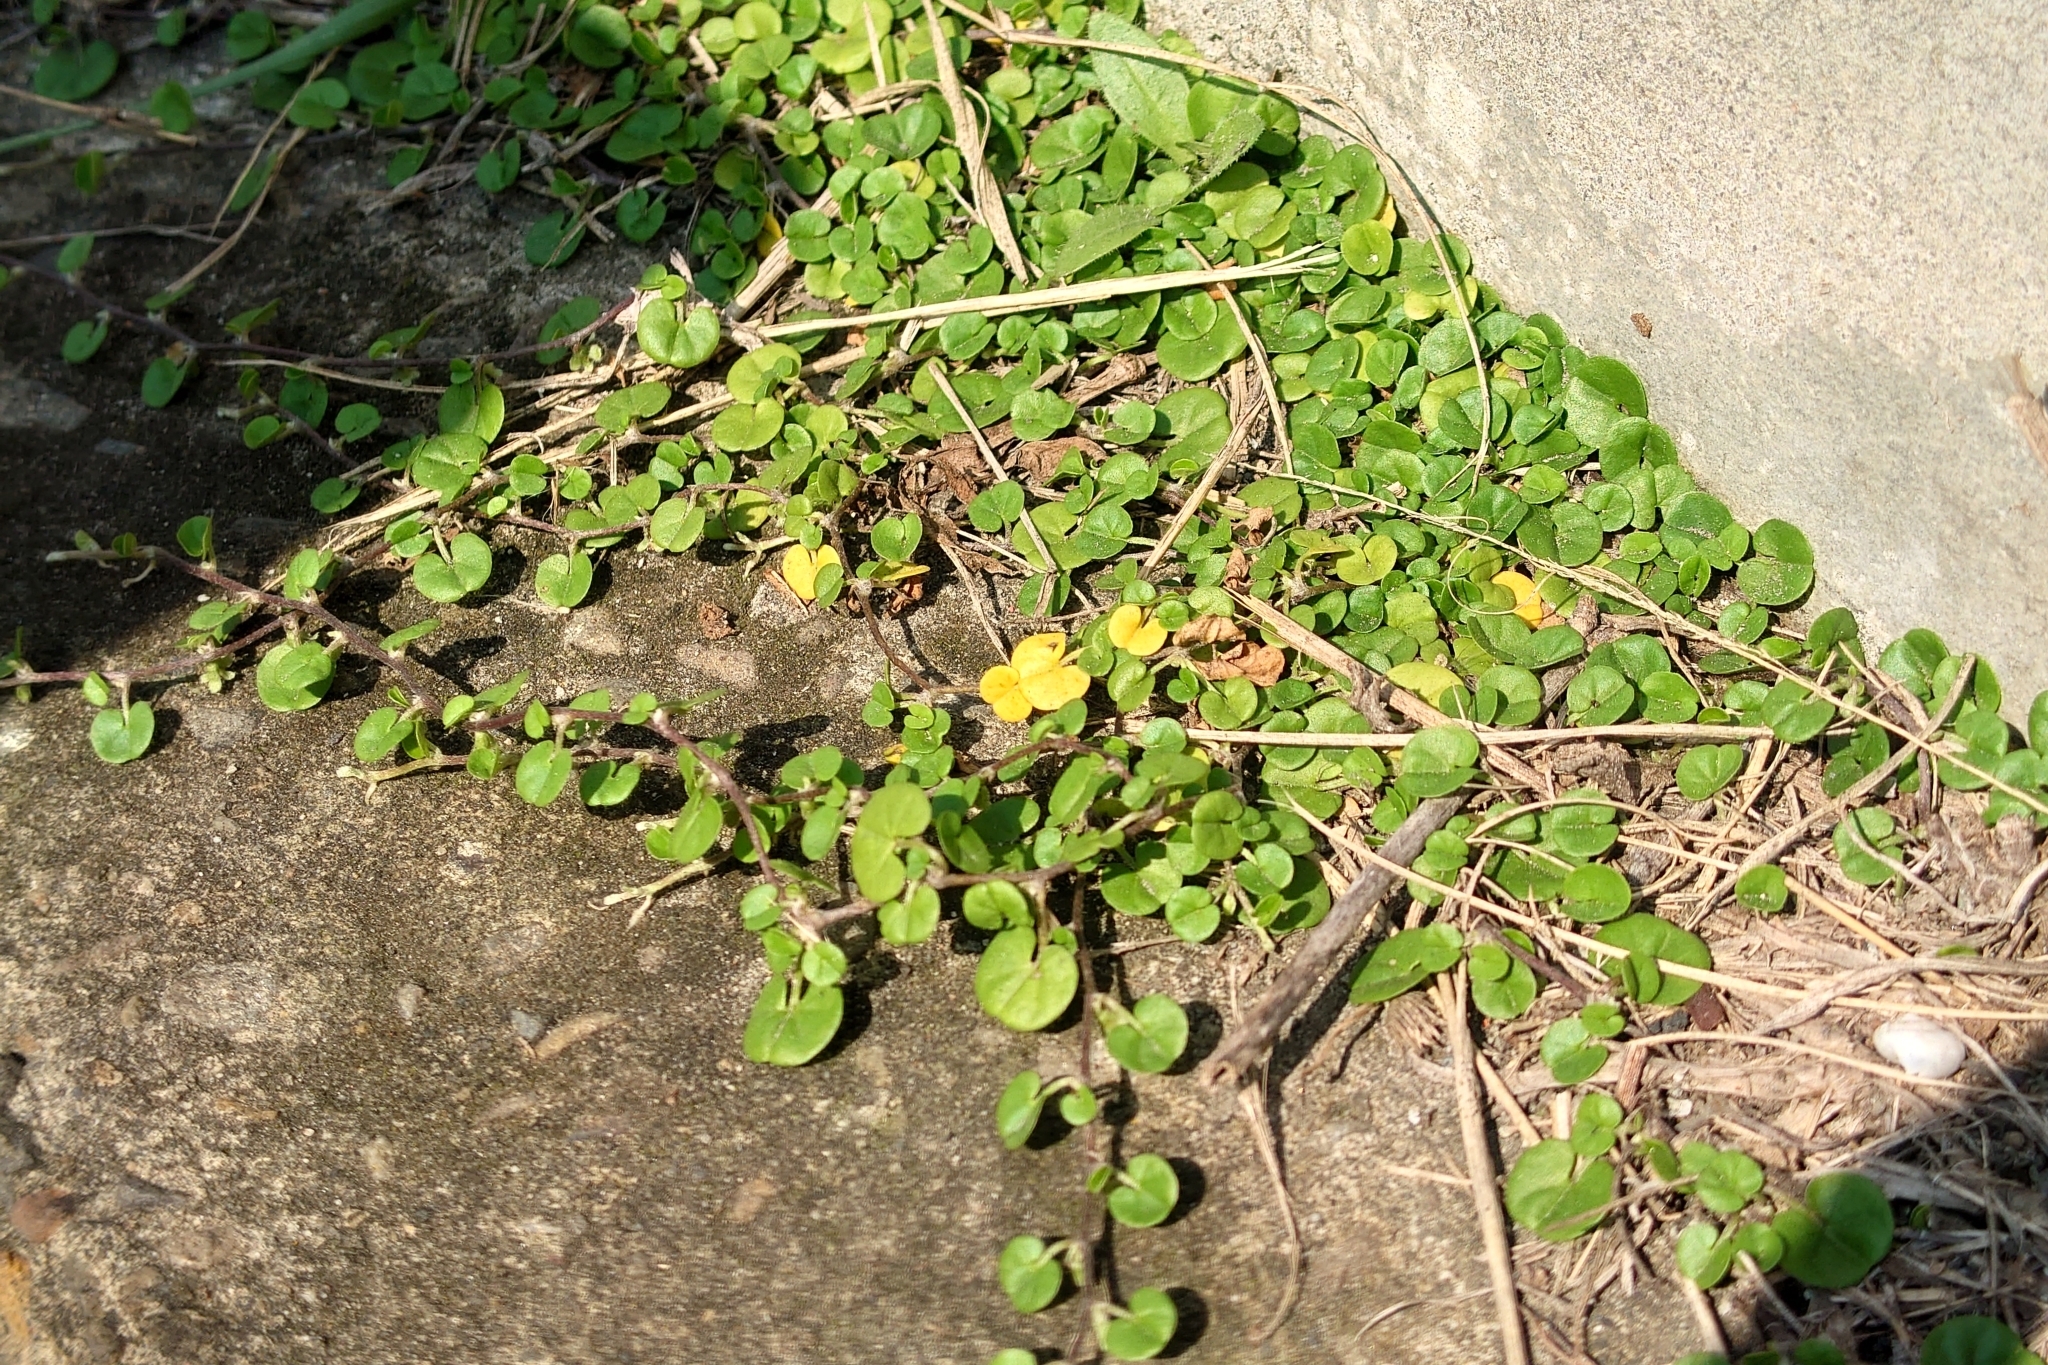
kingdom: Plantae
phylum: Tracheophyta
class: Magnoliopsida
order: Solanales
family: Convolvulaceae
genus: Dichondra
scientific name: Dichondra micrantha
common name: Kidneyweed
